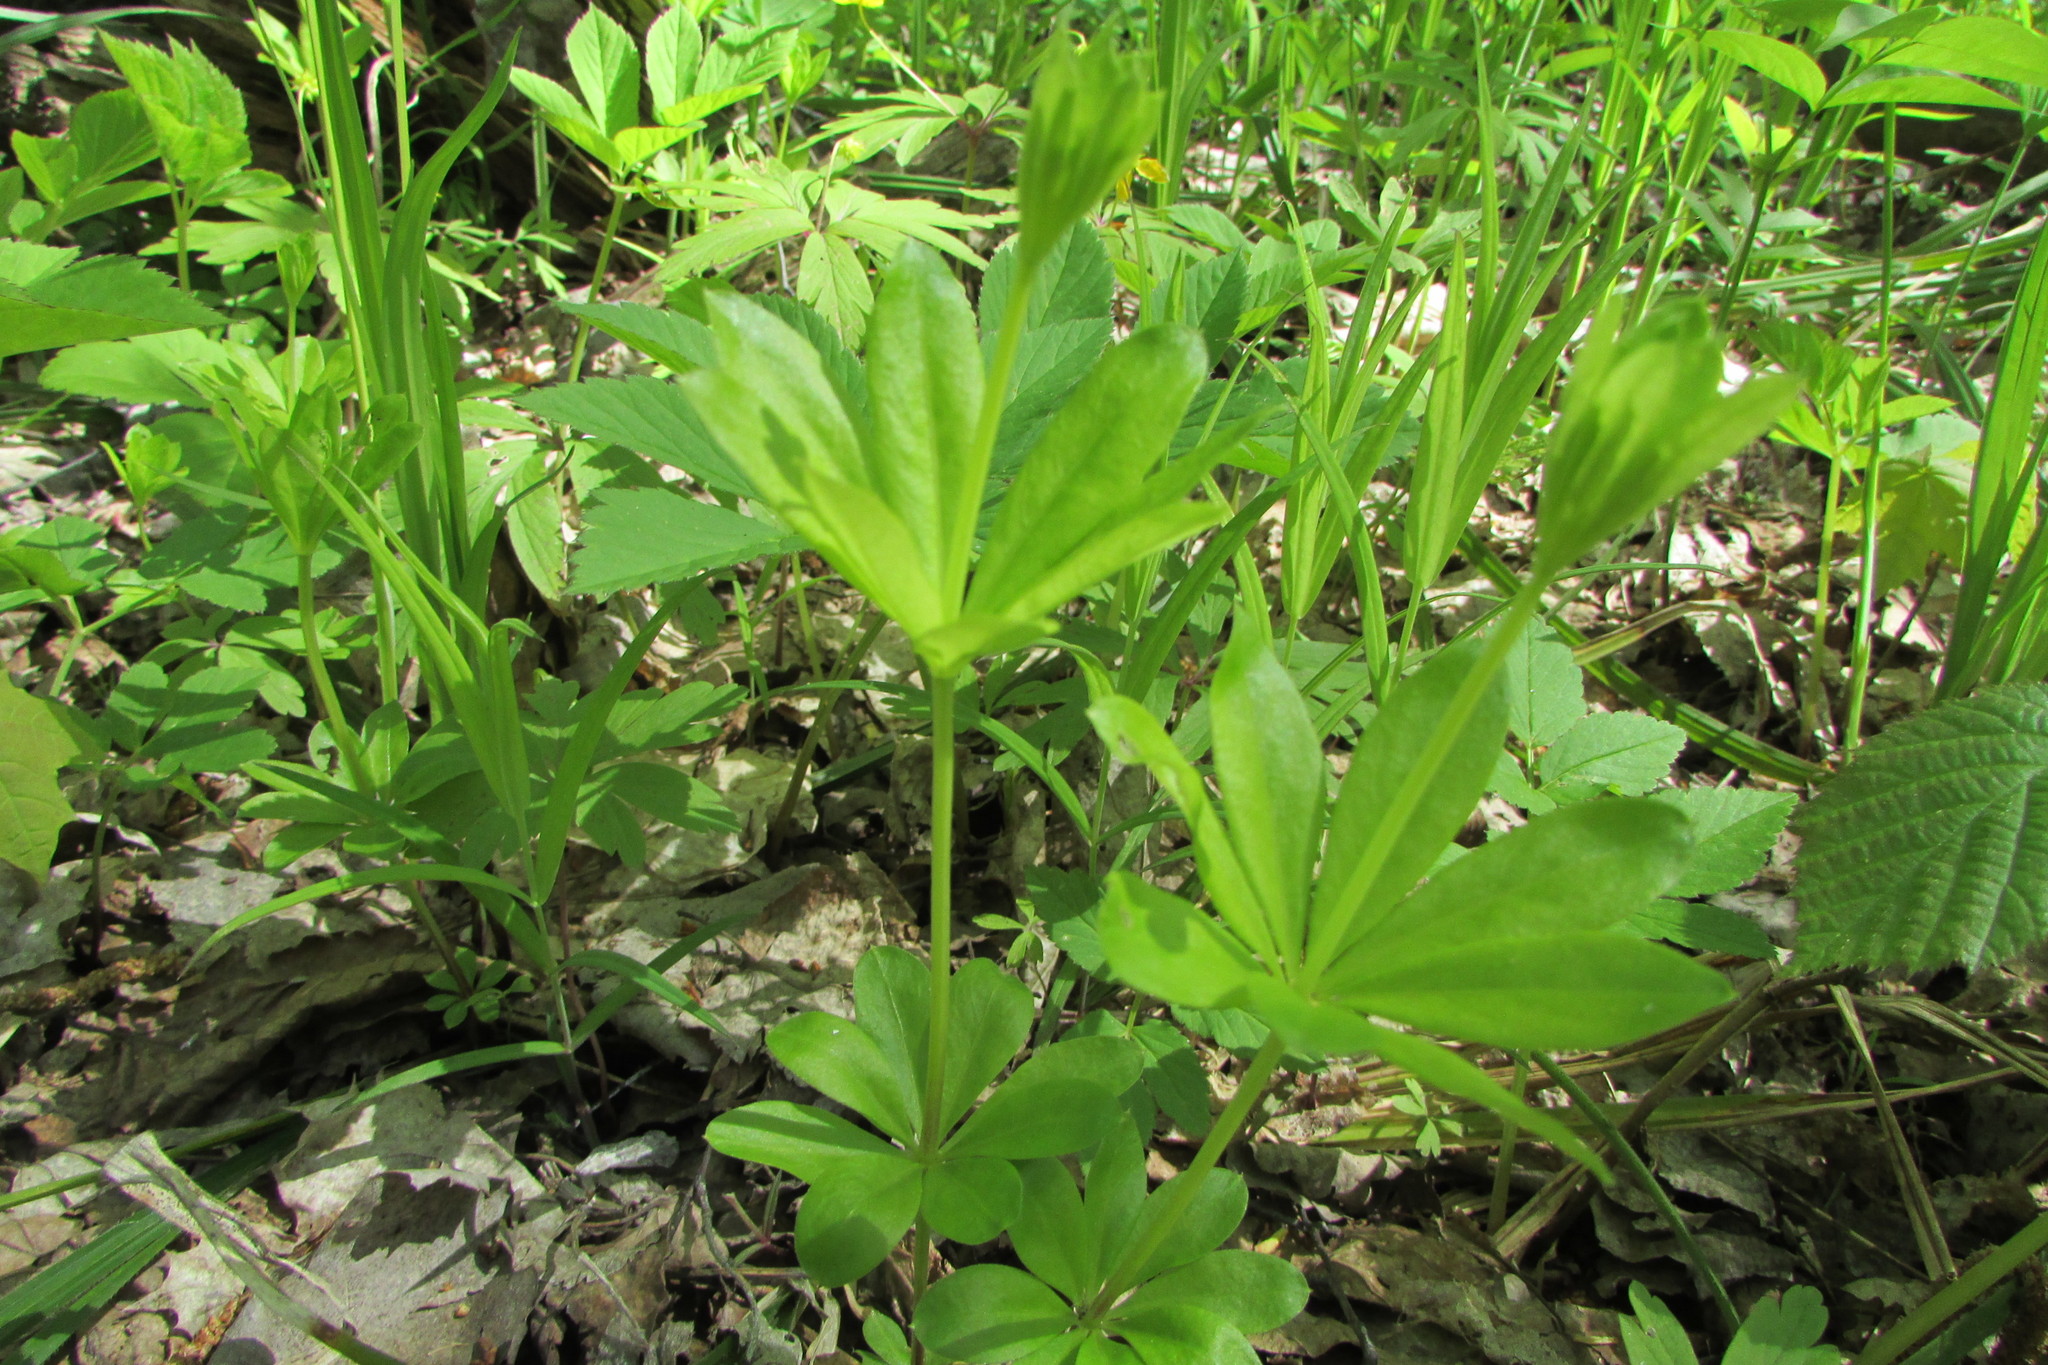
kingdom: Plantae
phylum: Tracheophyta
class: Magnoliopsida
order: Gentianales
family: Rubiaceae
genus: Galium
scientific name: Galium odoratum
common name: Sweet woodruff
